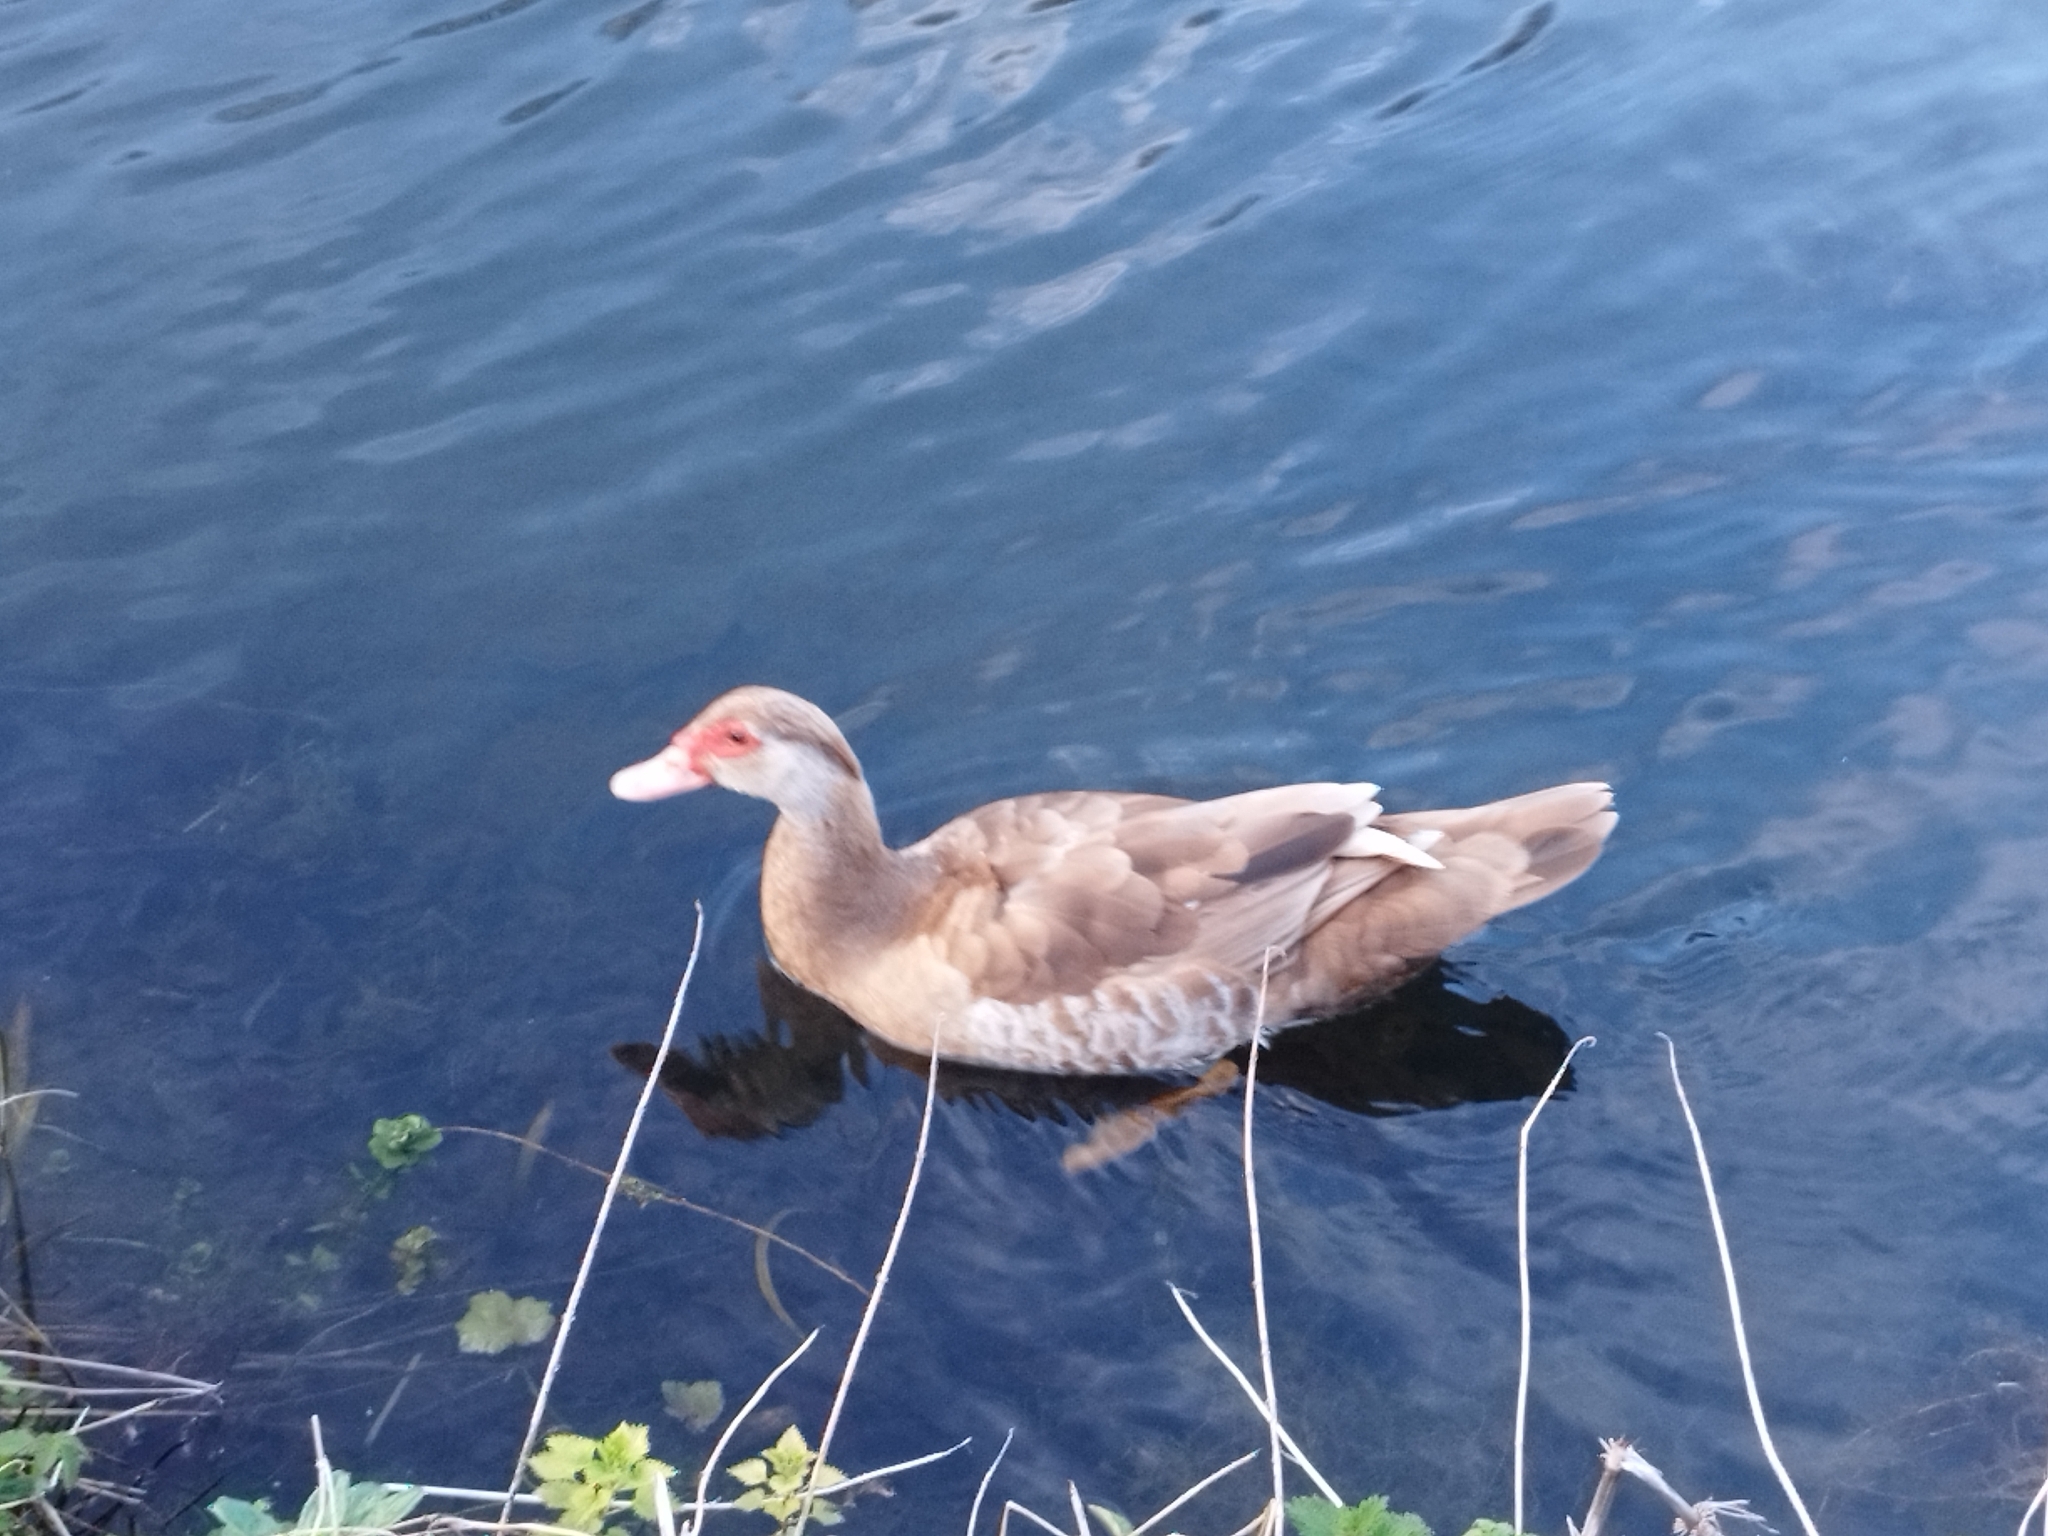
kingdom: Animalia
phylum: Chordata
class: Aves
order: Anseriformes
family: Anatidae
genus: Cairina
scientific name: Cairina moschata
